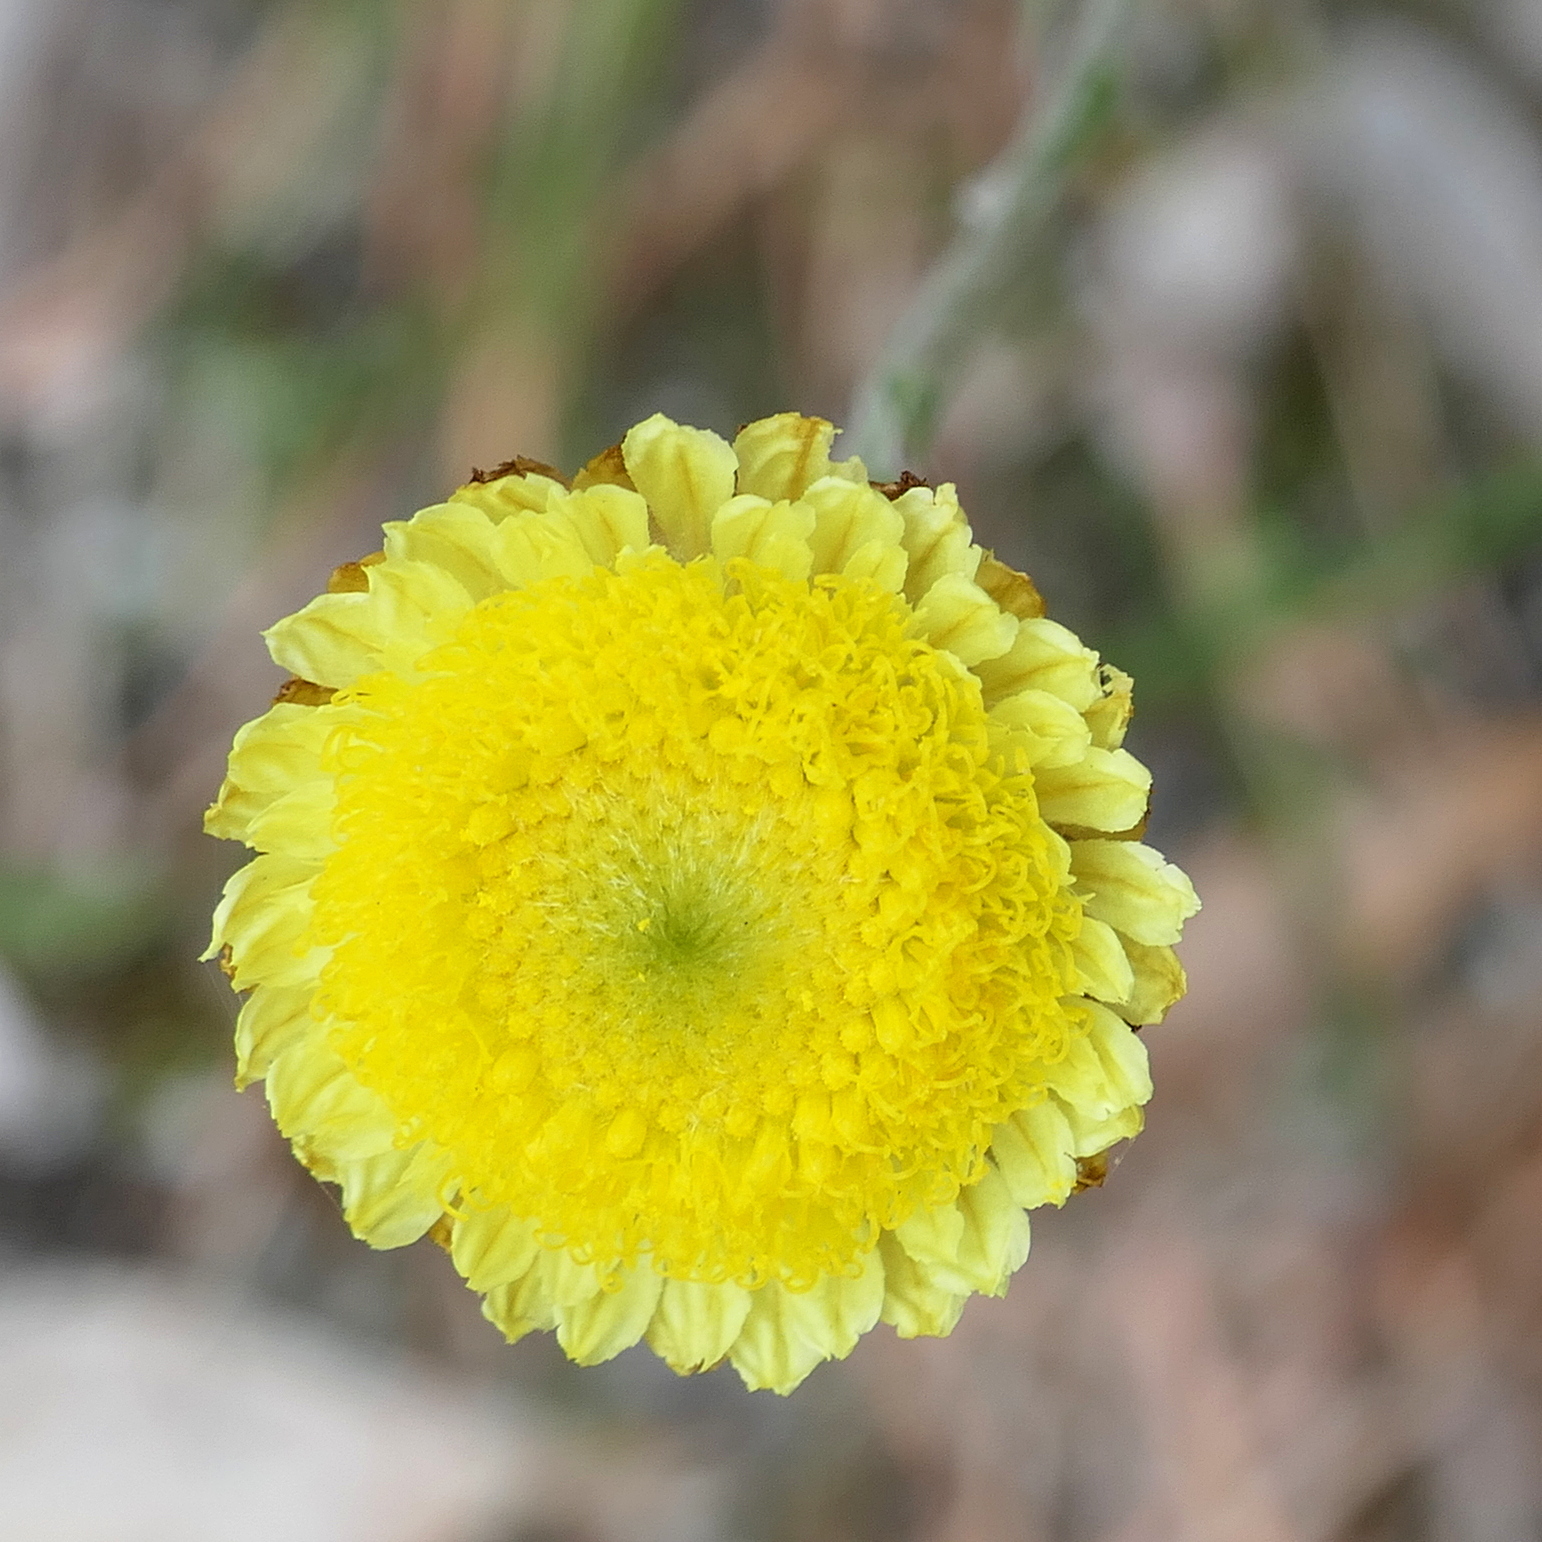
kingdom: Plantae
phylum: Tracheophyta
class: Magnoliopsida
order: Asterales
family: Asteraceae
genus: Coronidium
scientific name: Coronidium scorpioides
